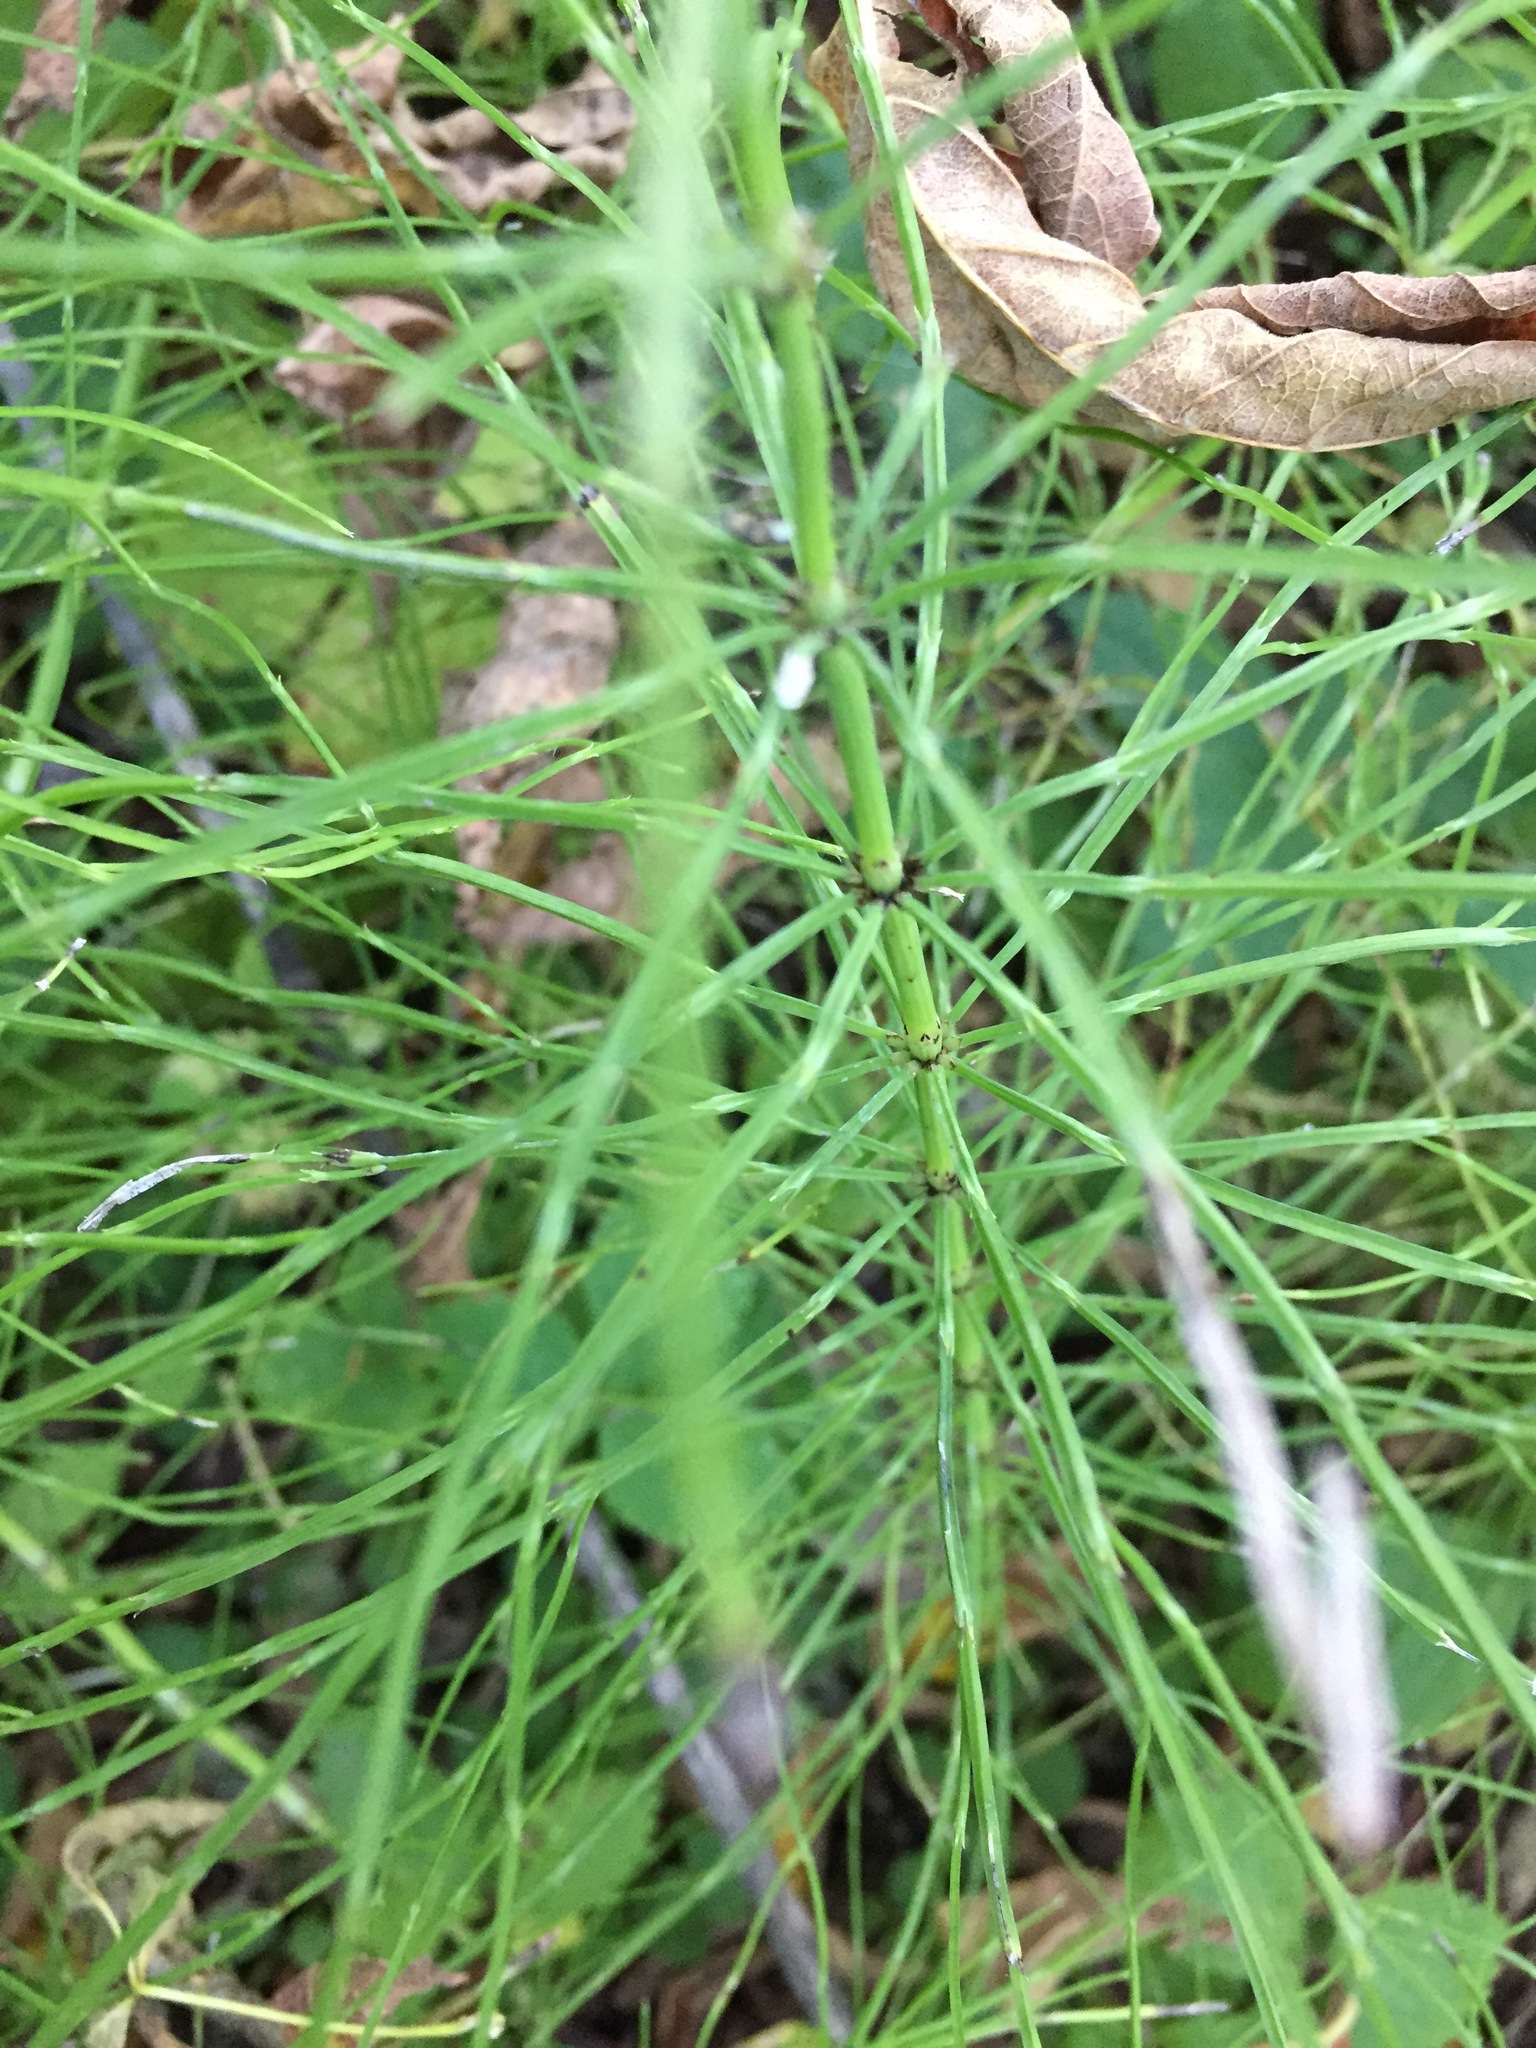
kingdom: Plantae
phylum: Tracheophyta
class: Polypodiopsida
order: Equisetales
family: Equisetaceae
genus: Equisetum
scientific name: Equisetum arvense
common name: Field horsetail
